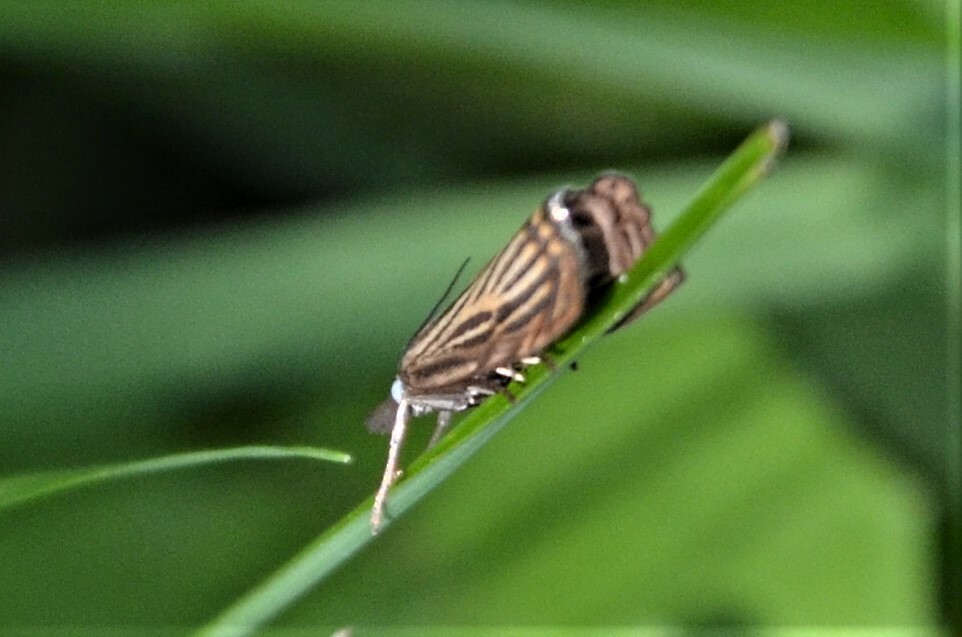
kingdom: Animalia
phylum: Arthropoda
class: Insecta
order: Lepidoptera
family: Crambidae
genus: Chrysoteuchia
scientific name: Chrysoteuchia culmella
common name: Garden grass-veneer
